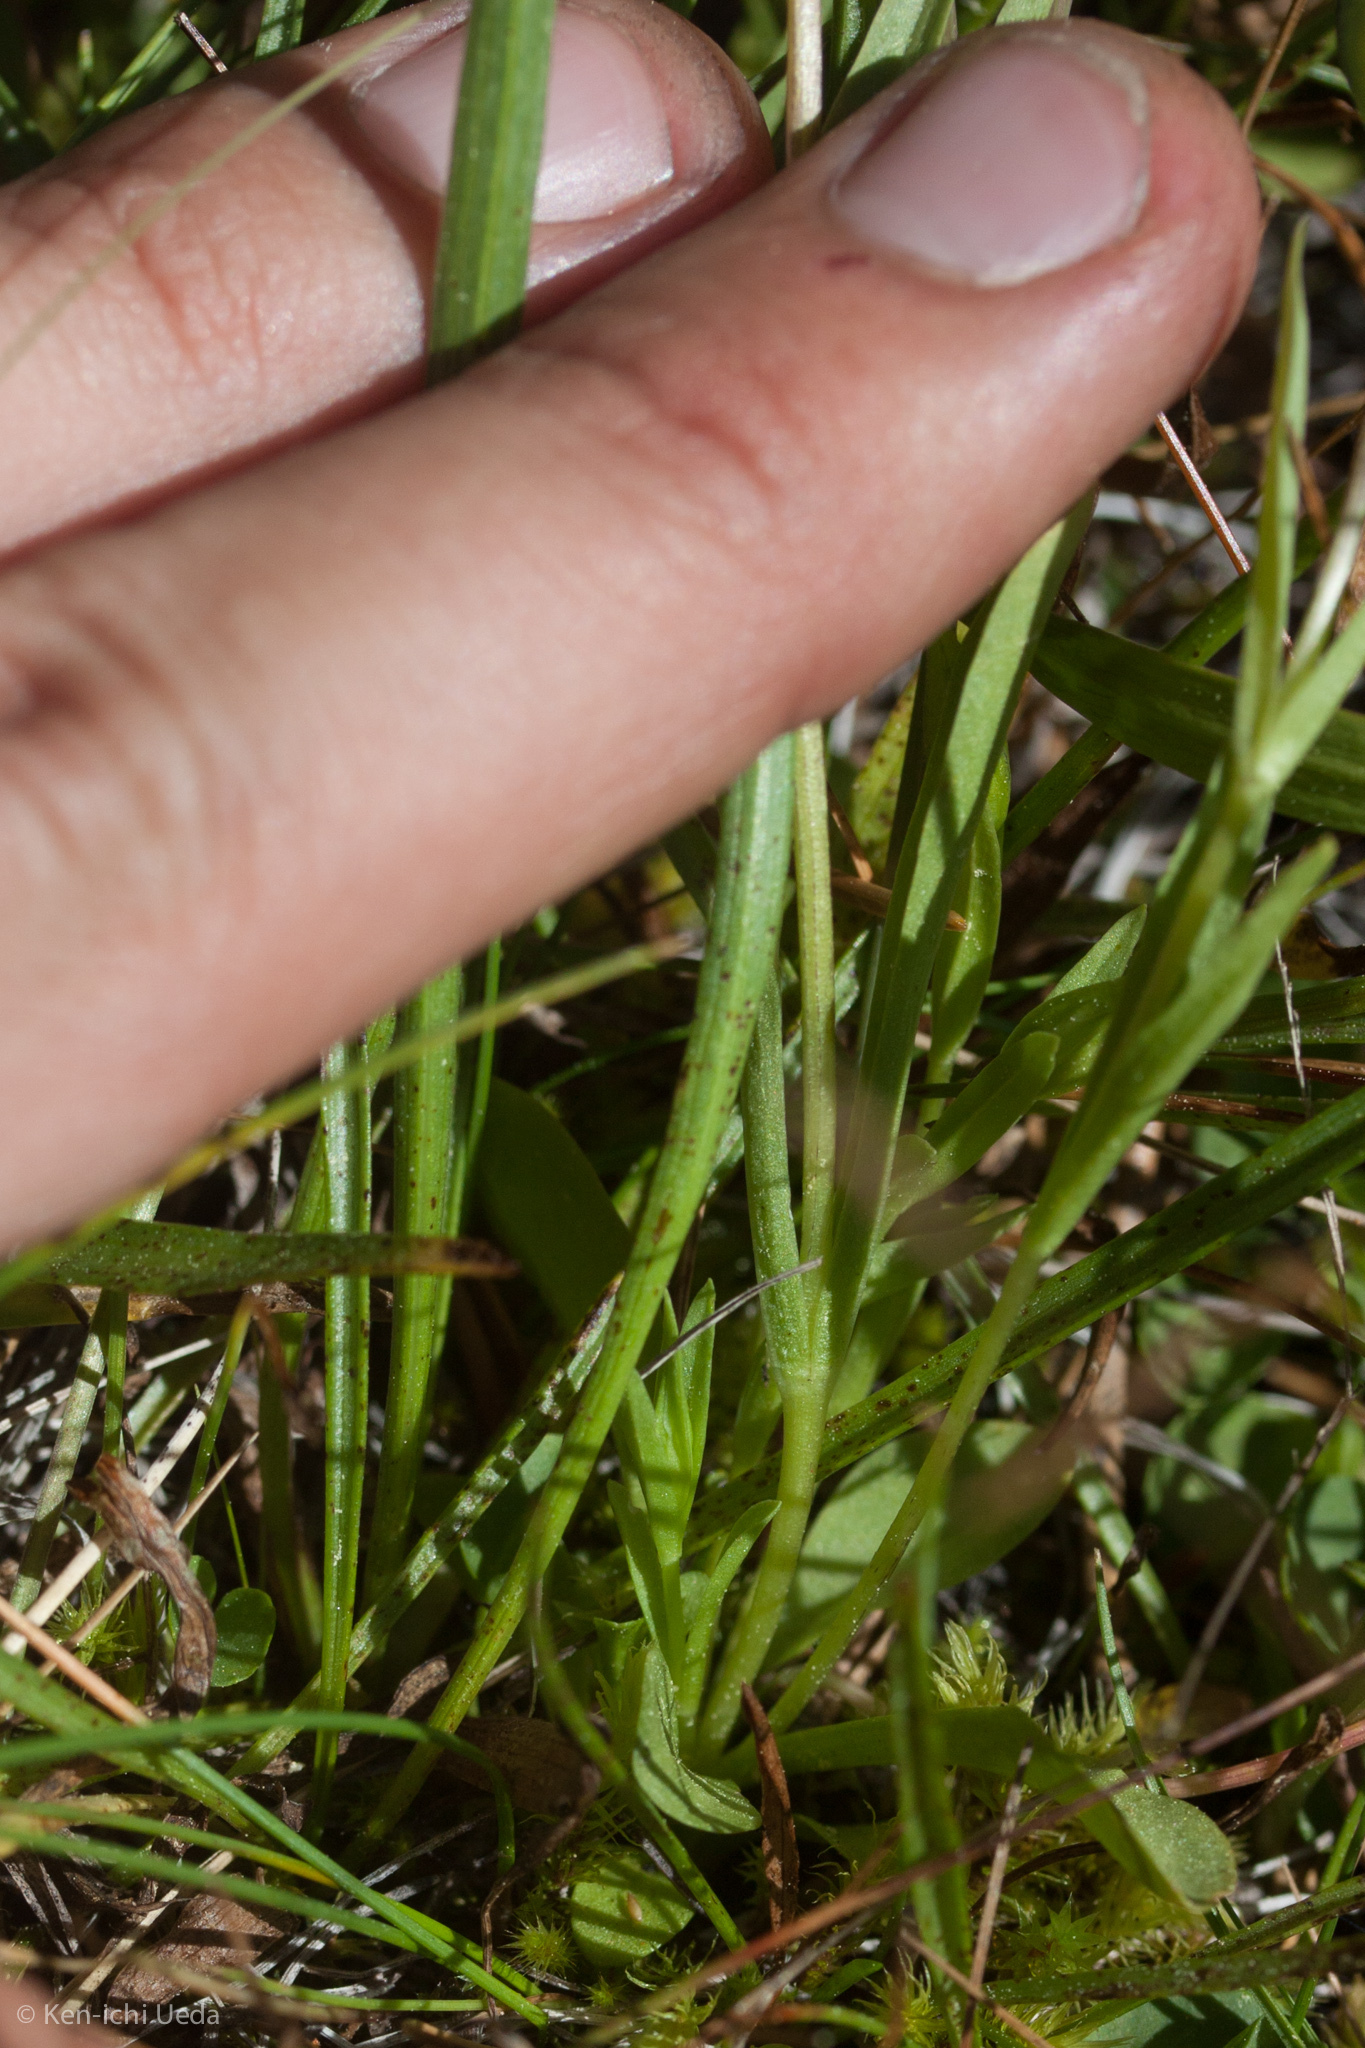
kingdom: Plantae
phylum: Tracheophyta
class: Magnoliopsida
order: Gentianales
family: Gentianaceae
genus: Gentianopsis
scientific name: Gentianopsis holopetala
